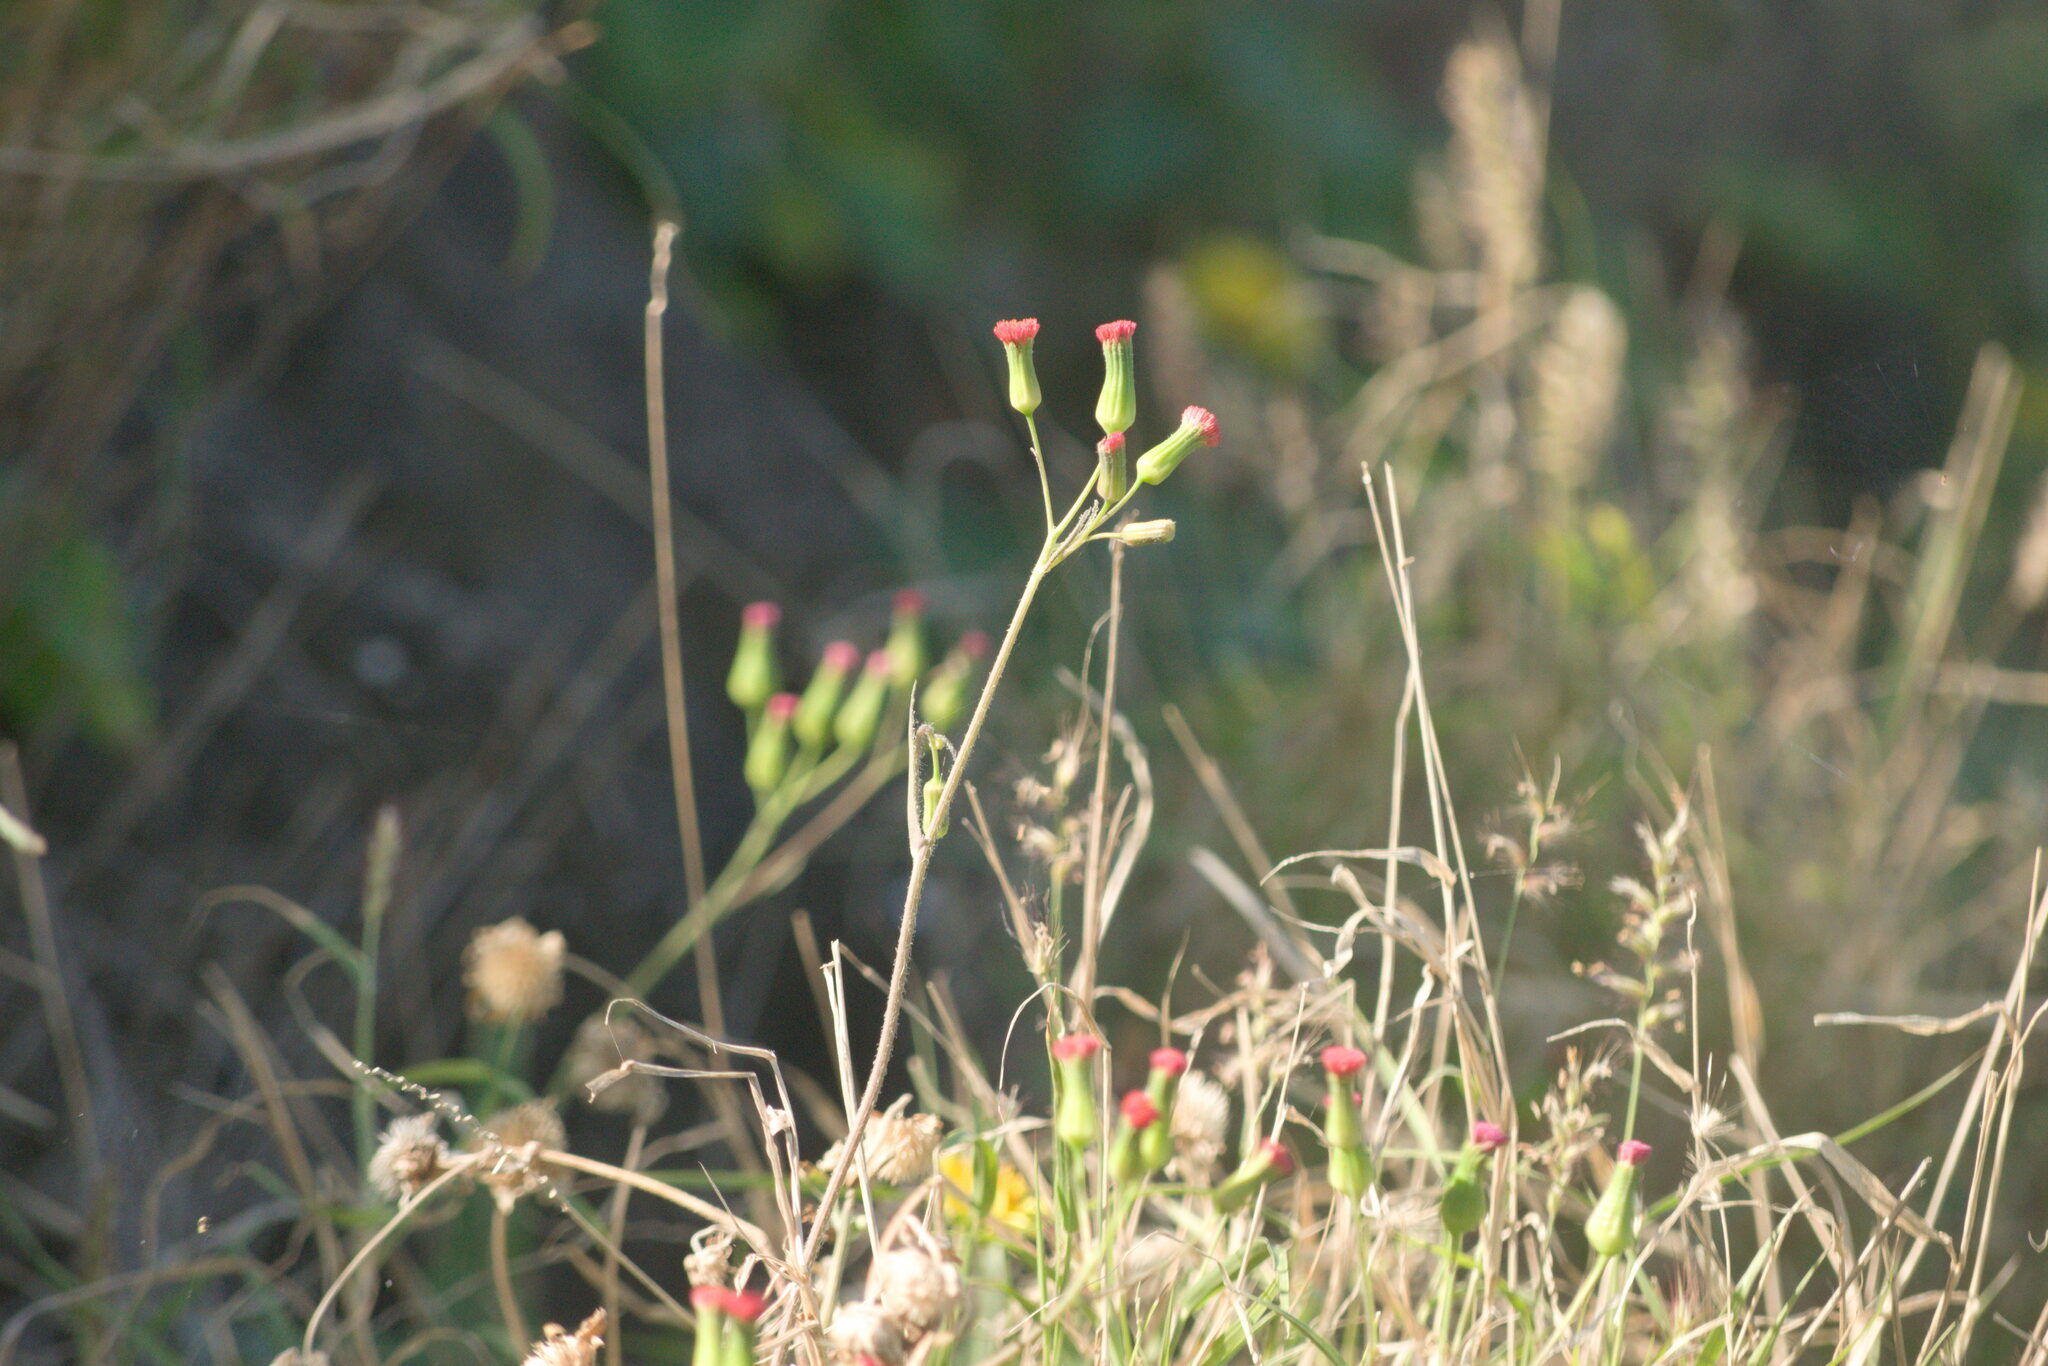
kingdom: Plantae
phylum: Tracheophyta
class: Magnoliopsida
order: Asterales
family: Asteraceae
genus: Emilia
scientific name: Emilia fosbergii
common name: Florida tasselflower
